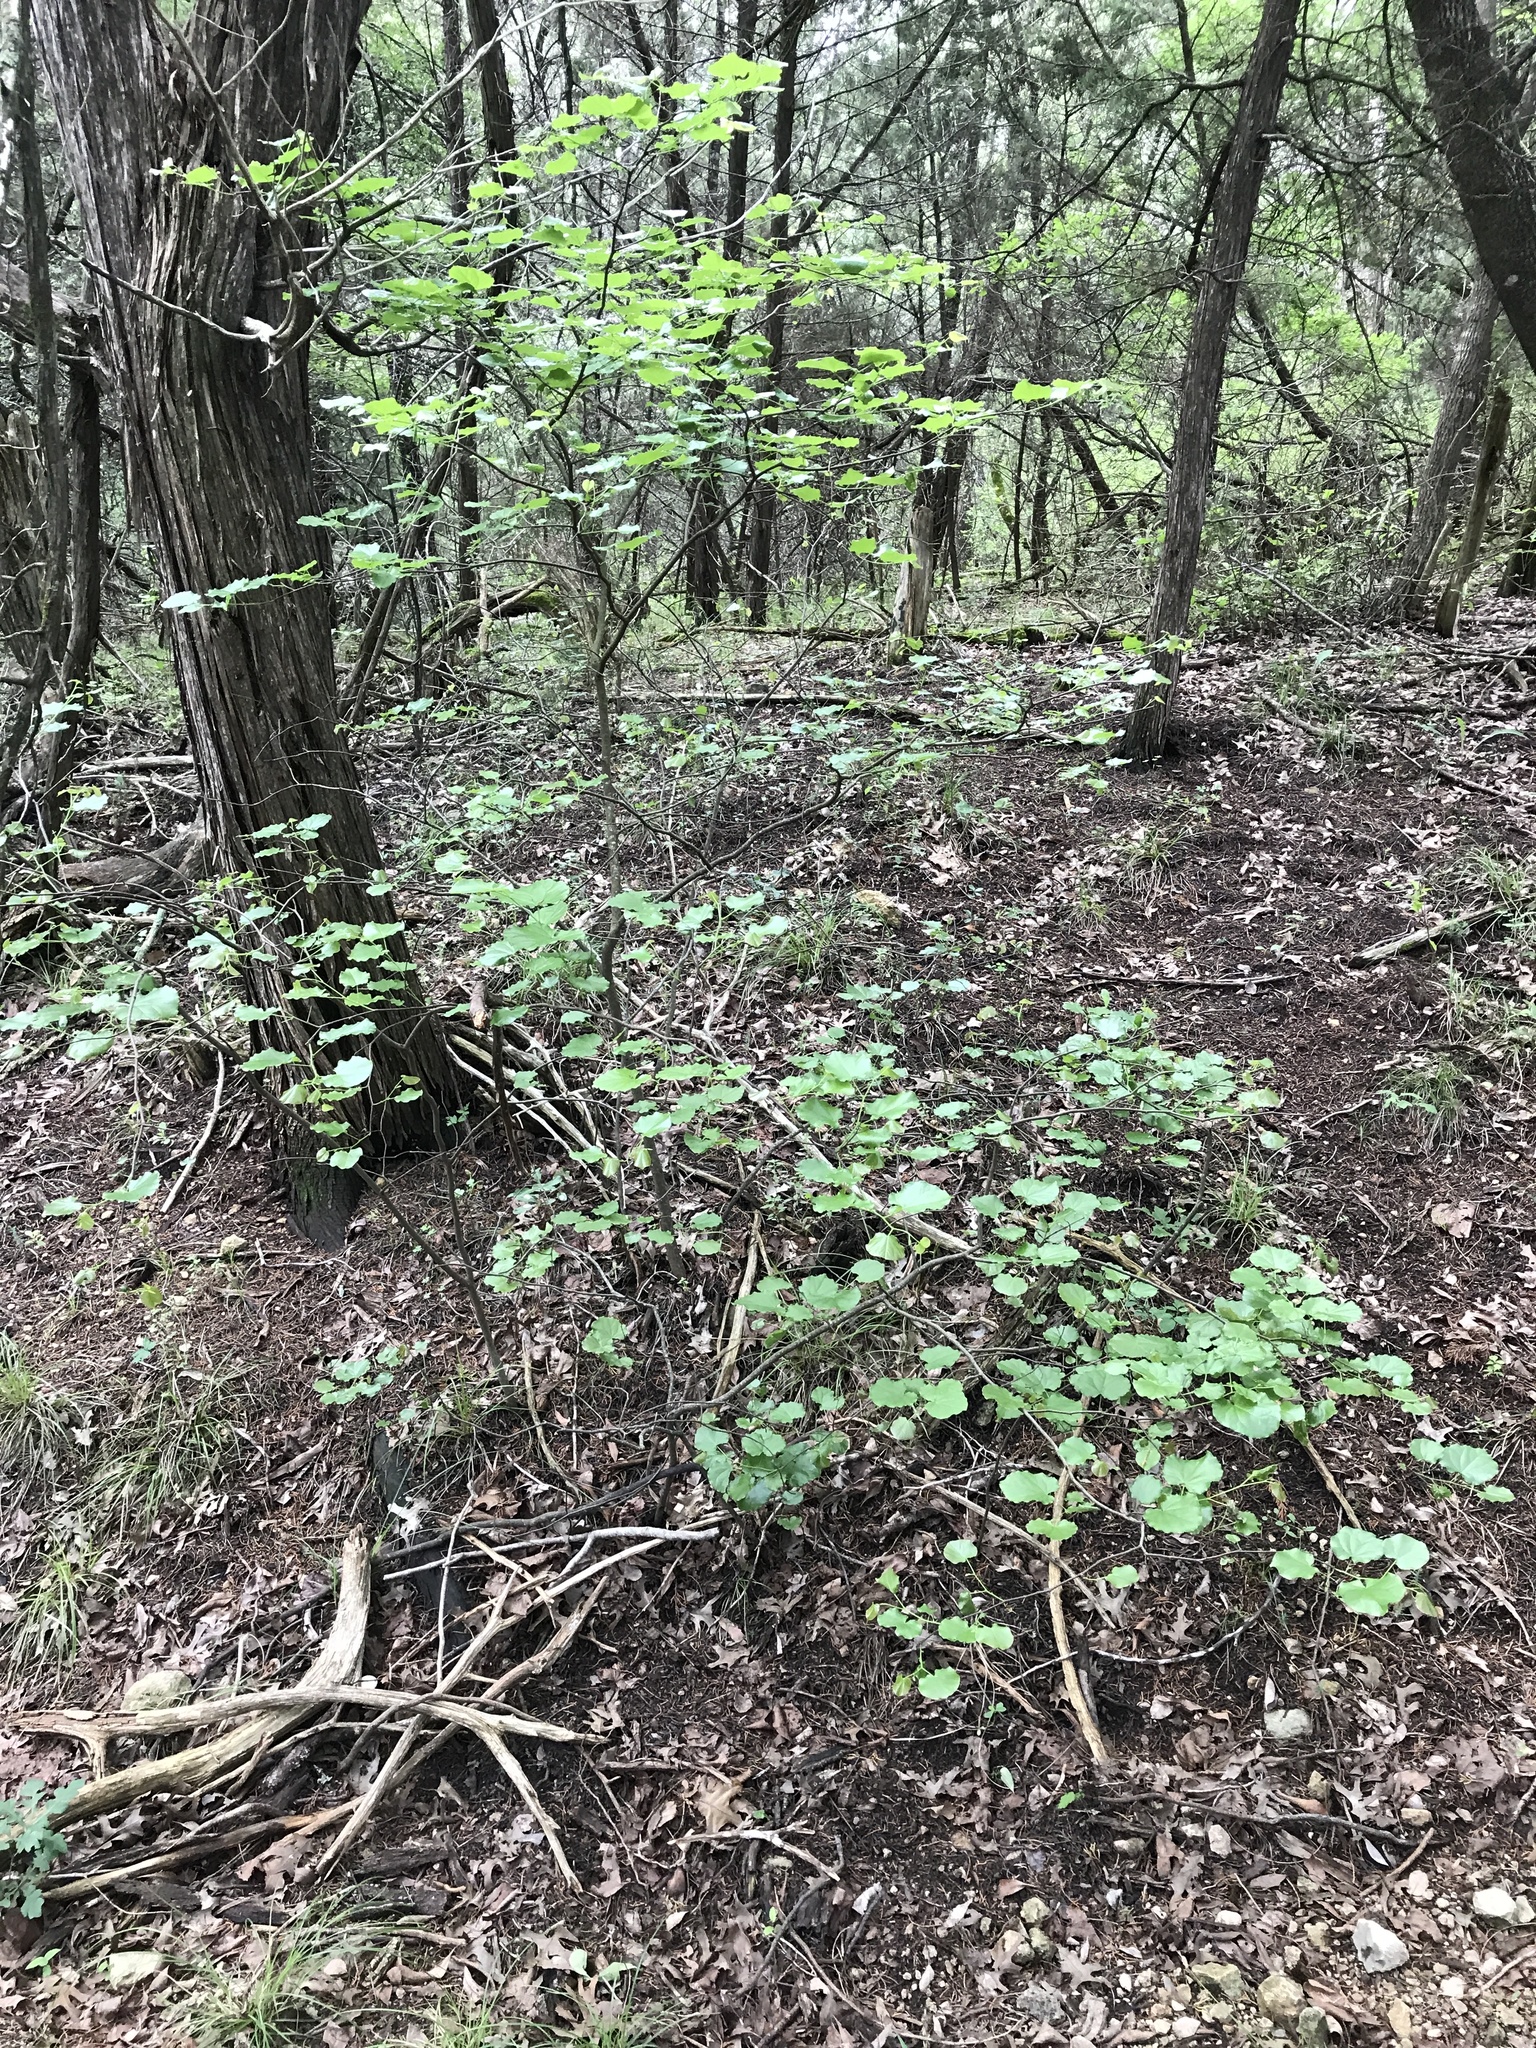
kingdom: Plantae
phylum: Tracheophyta
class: Magnoliopsida
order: Fabales
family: Fabaceae
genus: Cercis
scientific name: Cercis canadensis
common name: Eastern redbud
